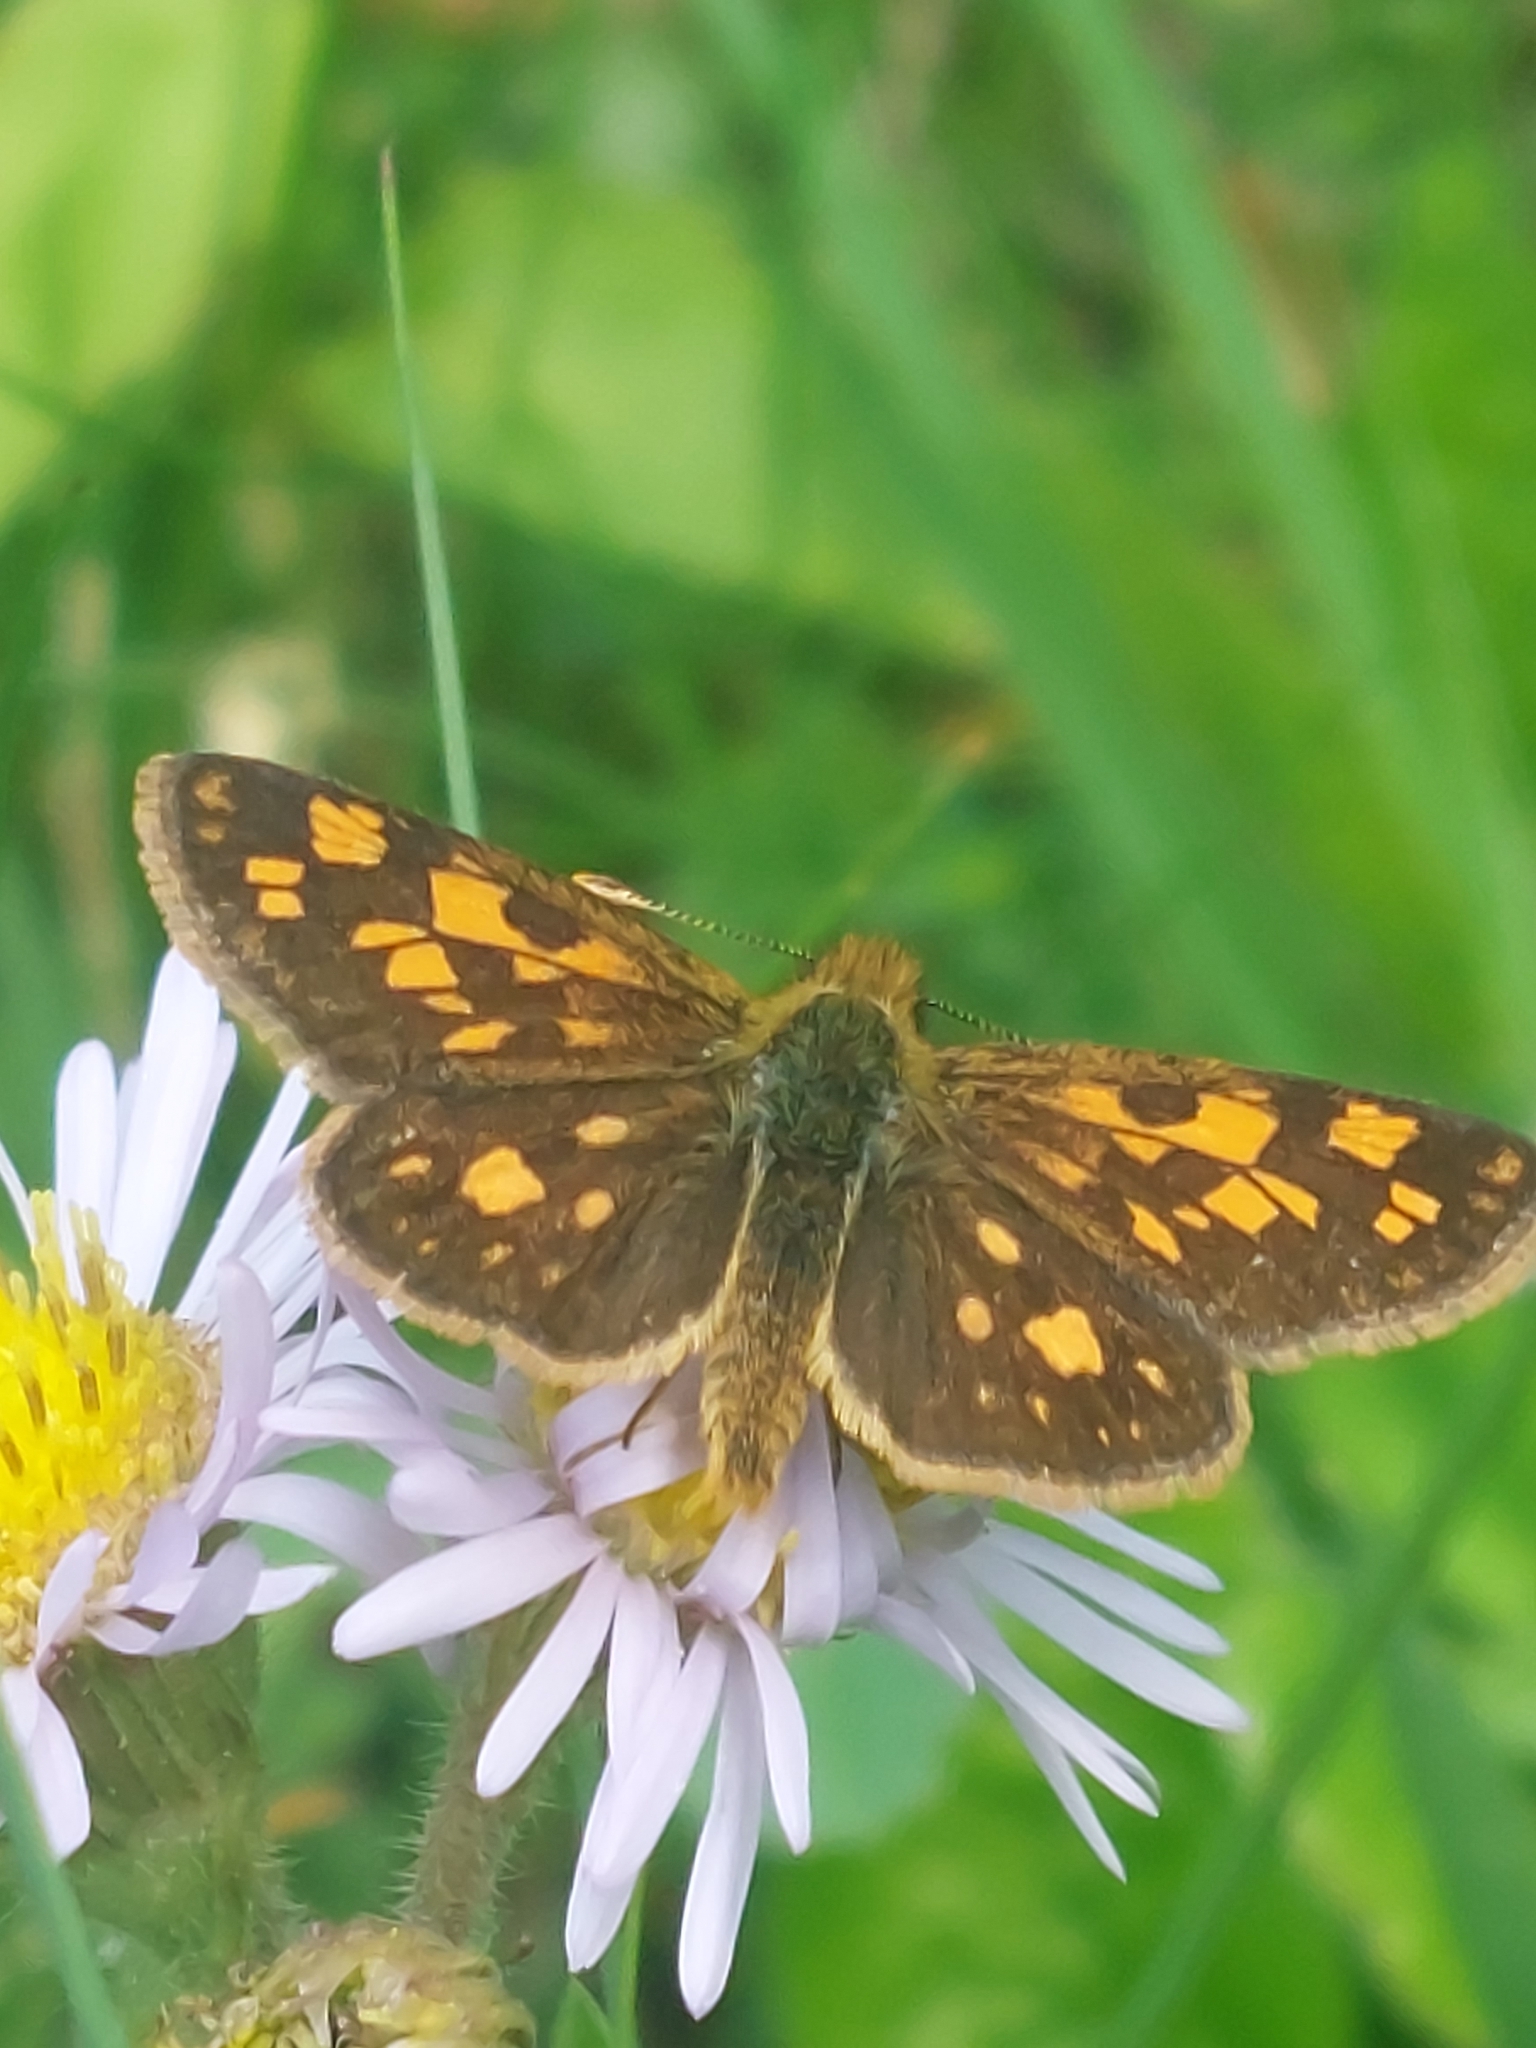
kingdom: Animalia
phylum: Arthropoda
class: Insecta
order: Lepidoptera
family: Hesperiidae
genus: Carterocephalus
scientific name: Carterocephalus mandan
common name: Arctic skipperling
